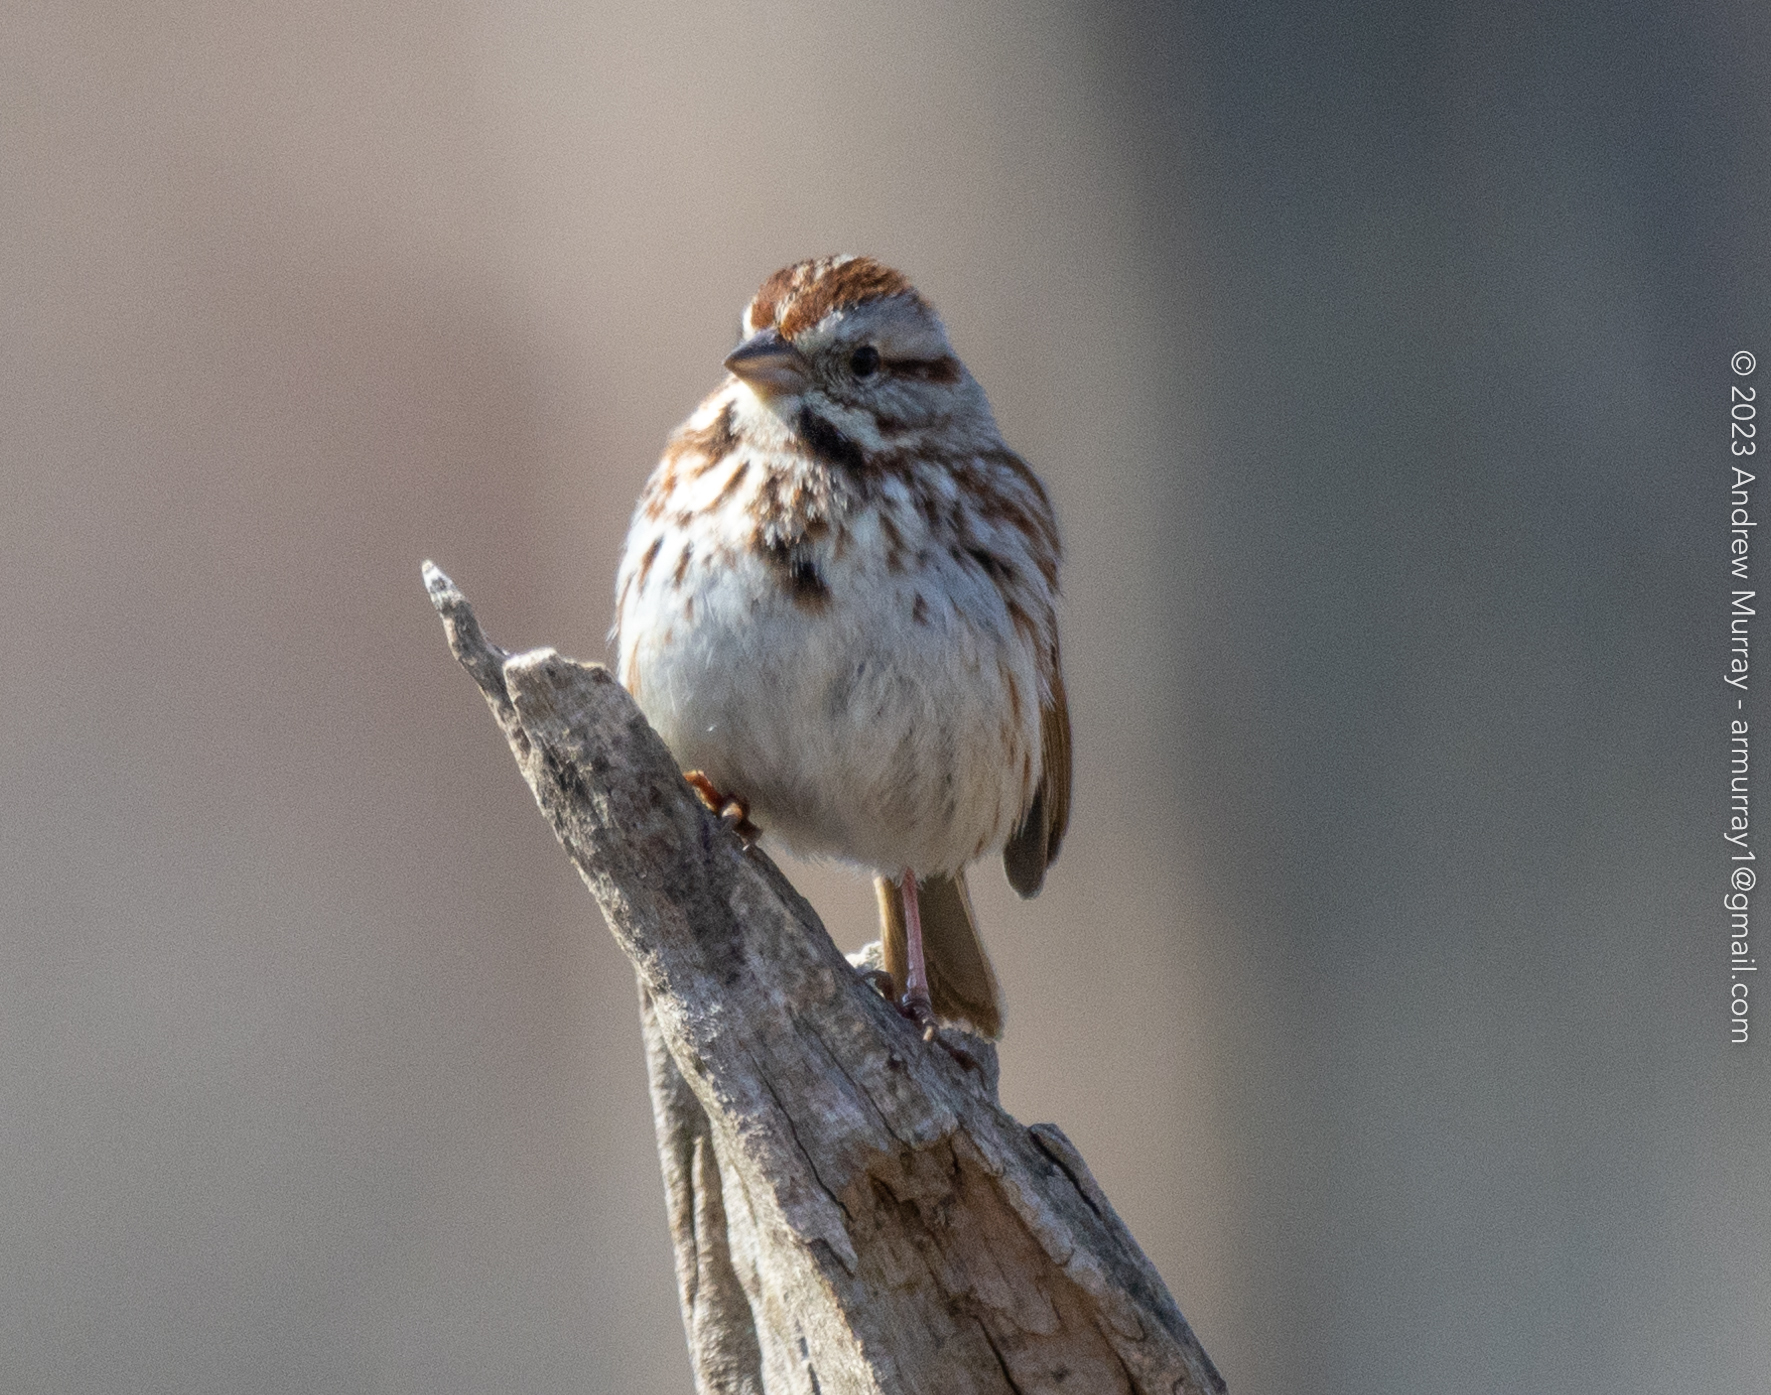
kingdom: Animalia
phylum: Chordata
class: Aves
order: Passeriformes
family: Passerellidae
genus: Melospiza
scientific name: Melospiza melodia
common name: Song sparrow
